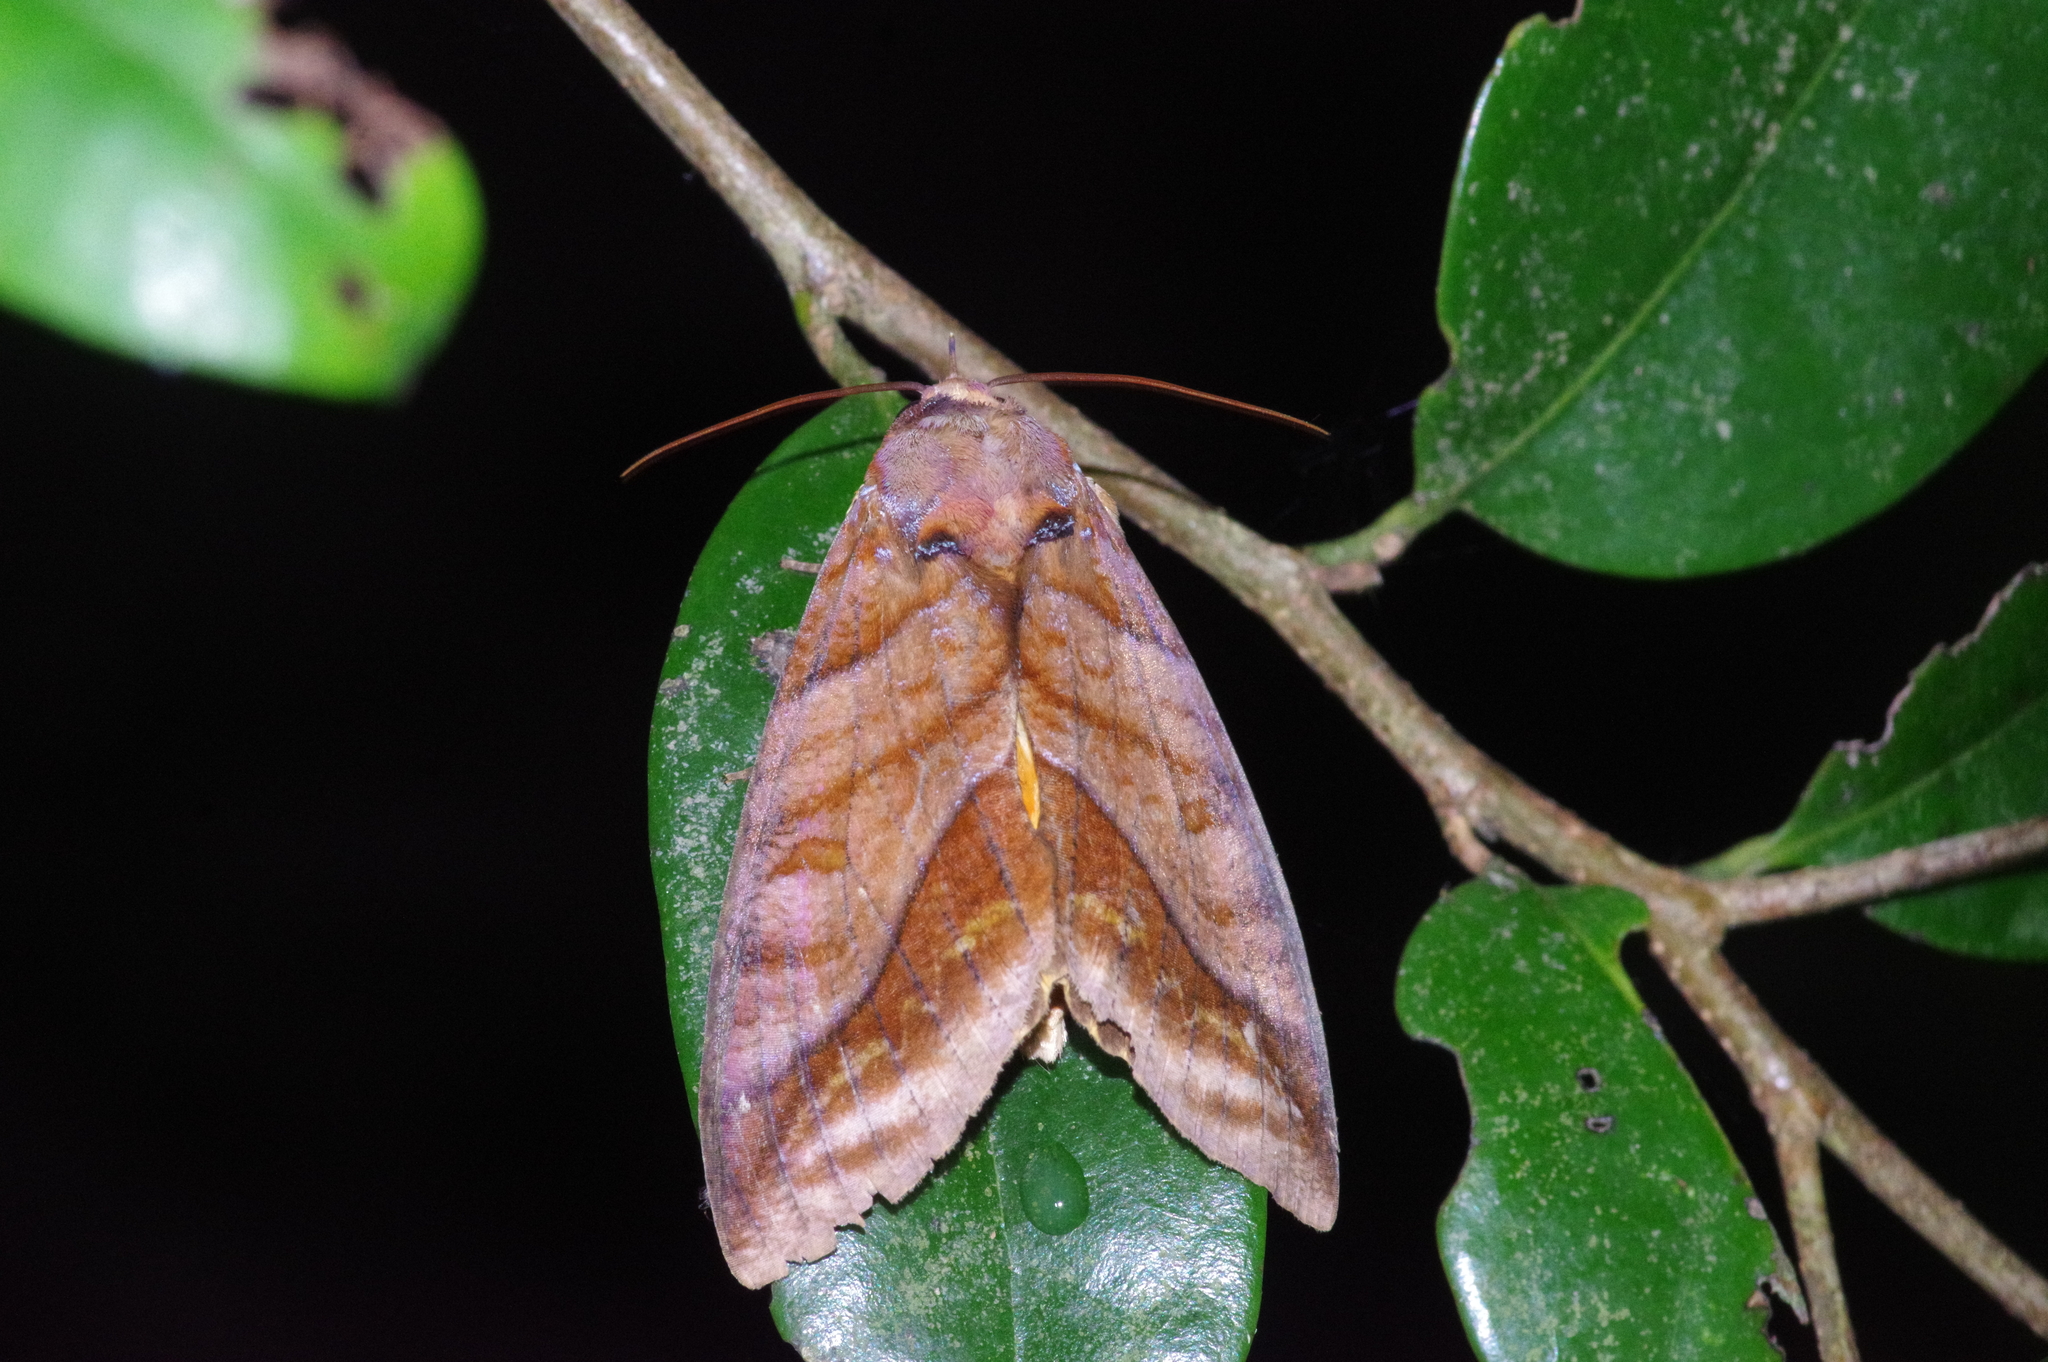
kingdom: Animalia
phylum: Arthropoda
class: Insecta
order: Lepidoptera
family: Erebidae
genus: Eudocima
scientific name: Eudocima homaena
